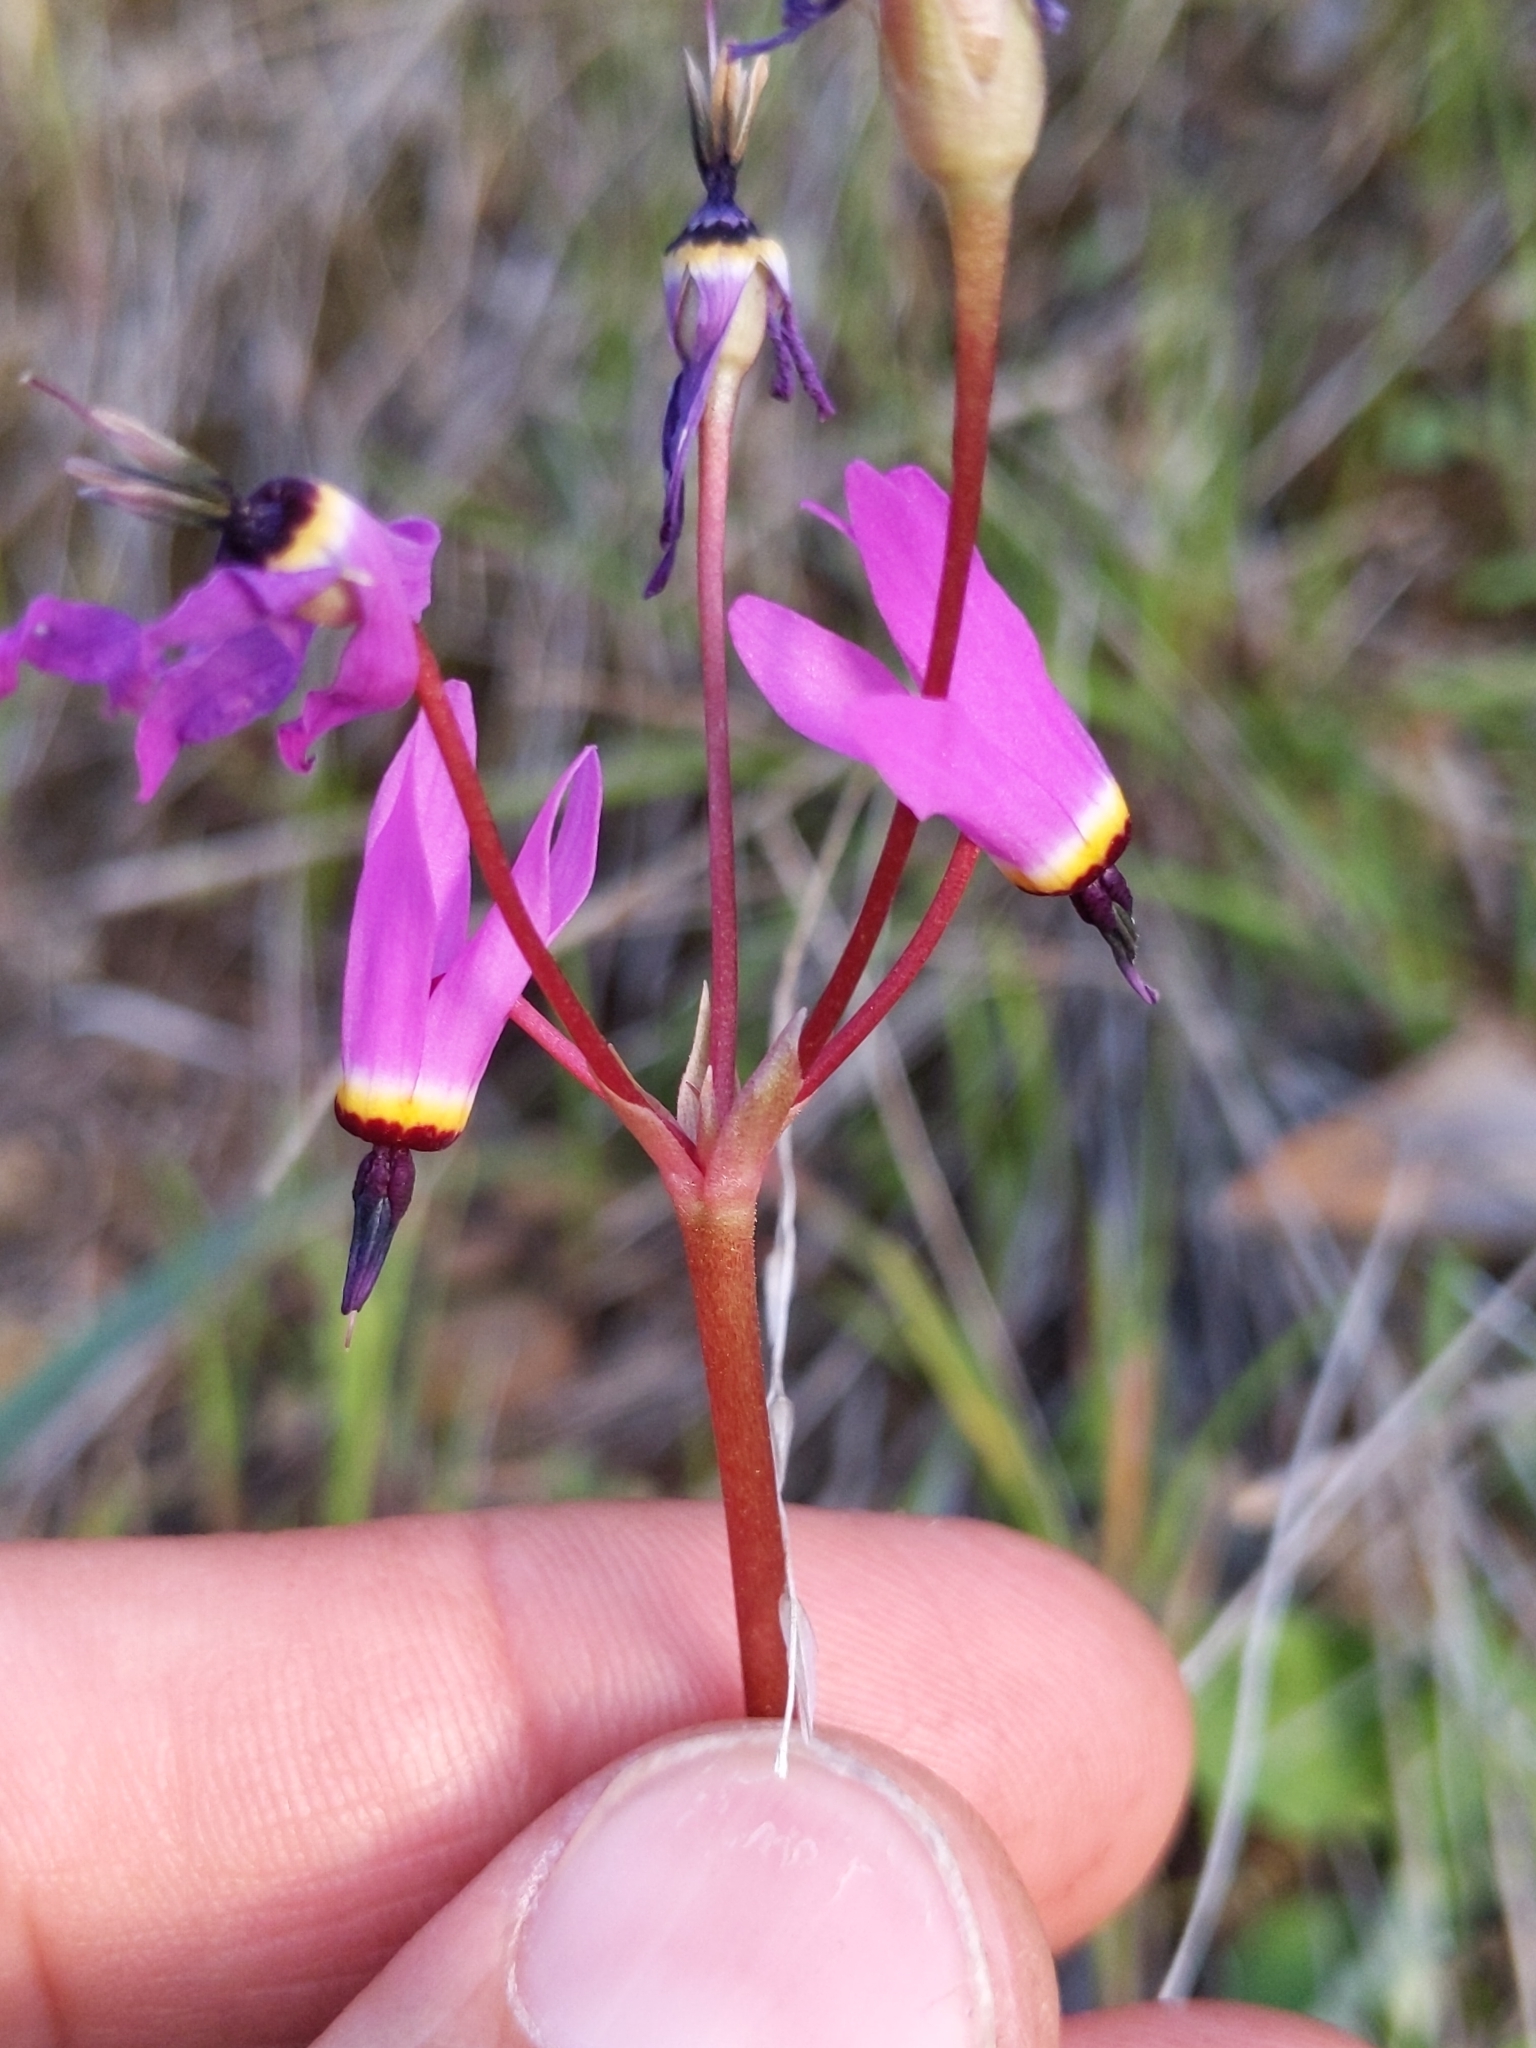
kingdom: Plantae
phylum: Tracheophyta
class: Magnoliopsida
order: Ericales
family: Primulaceae
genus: Dodecatheon
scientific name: Dodecatheon hendersonii
